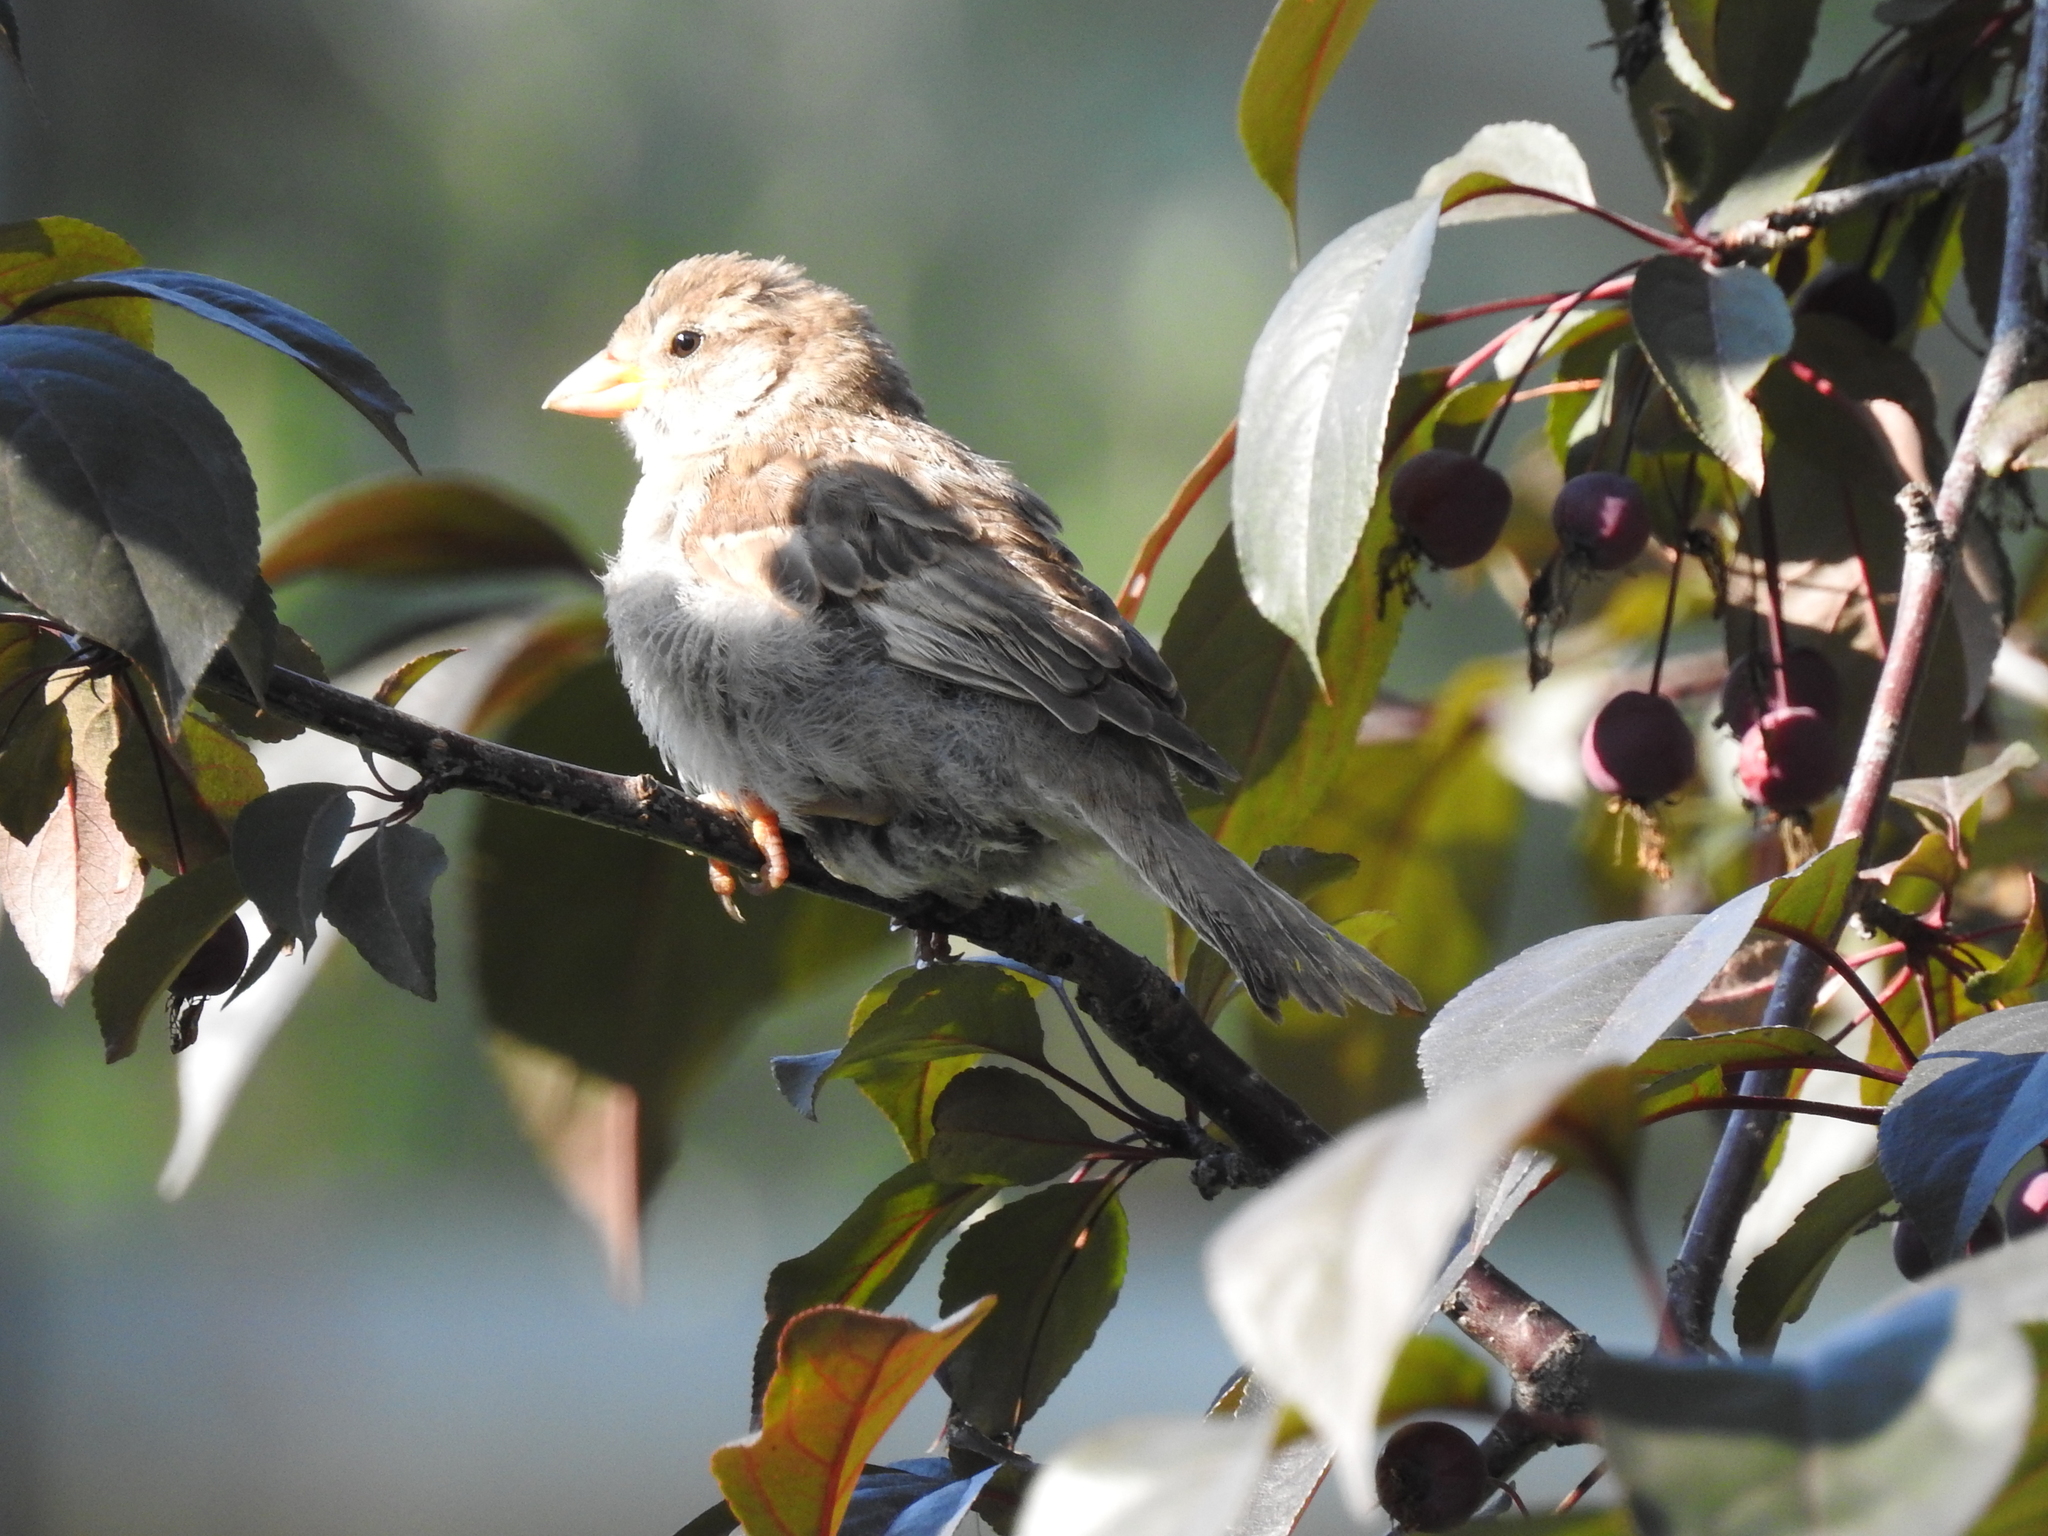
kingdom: Animalia
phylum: Chordata
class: Aves
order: Passeriformes
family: Passeridae
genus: Passer
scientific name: Passer domesticus
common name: House sparrow
